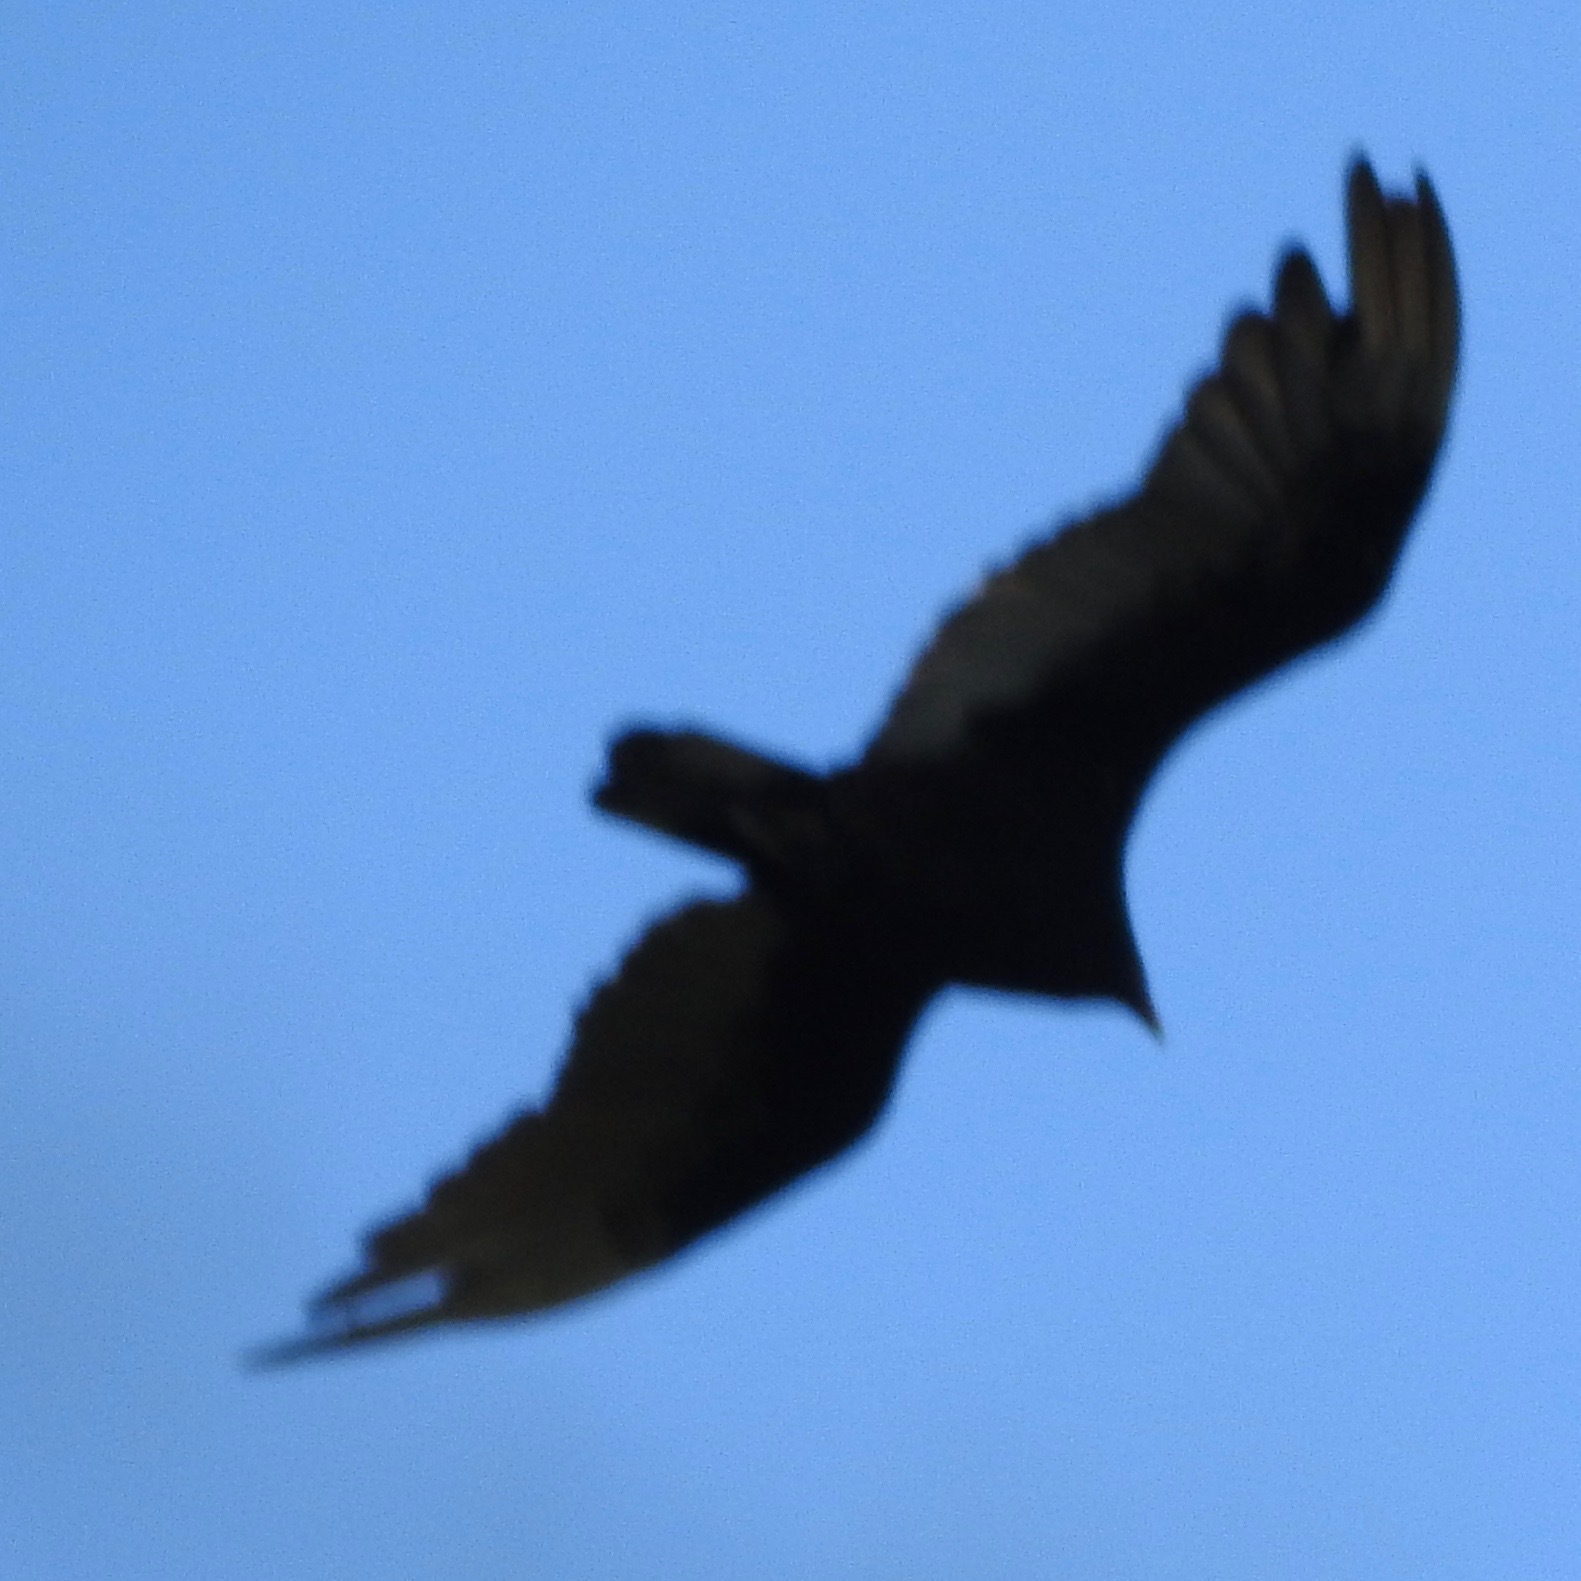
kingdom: Animalia
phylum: Chordata
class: Aves
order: Accipitriformes
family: Cathartidae
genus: Cathartes
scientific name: Cathartes aura
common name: Turkey vulture
